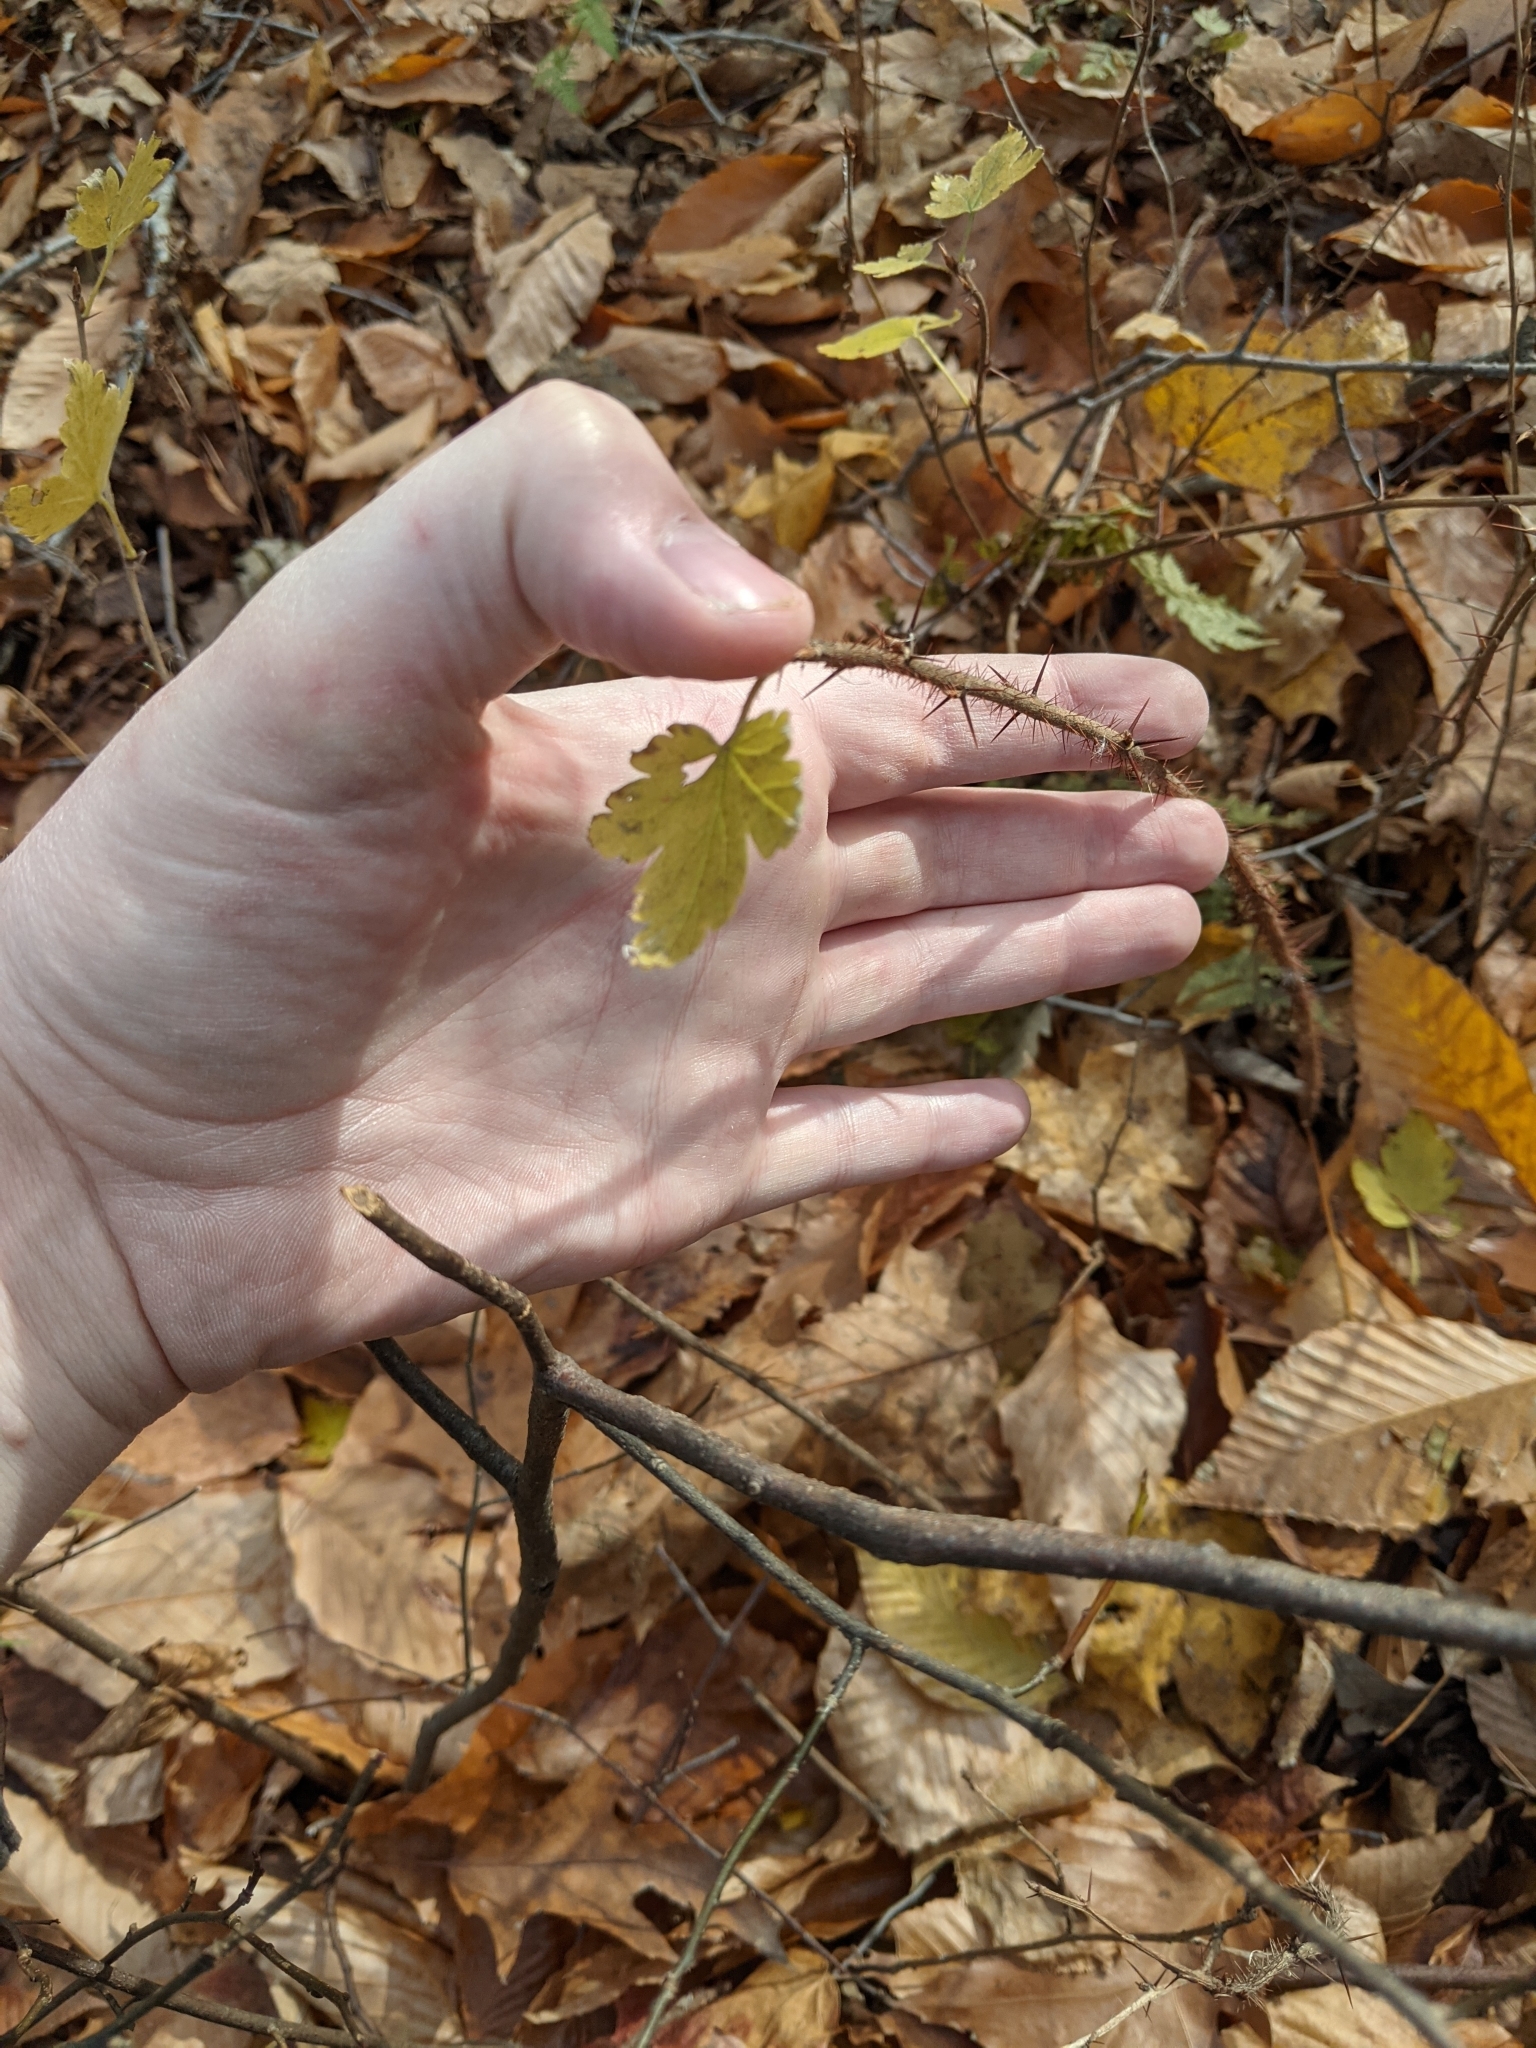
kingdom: Plantae
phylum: Tracheophyta
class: Magnoliopsida
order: Saxifragales
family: Grossulariaceae
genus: Ribes
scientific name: Ribes cynosbati
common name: American gooseberry
